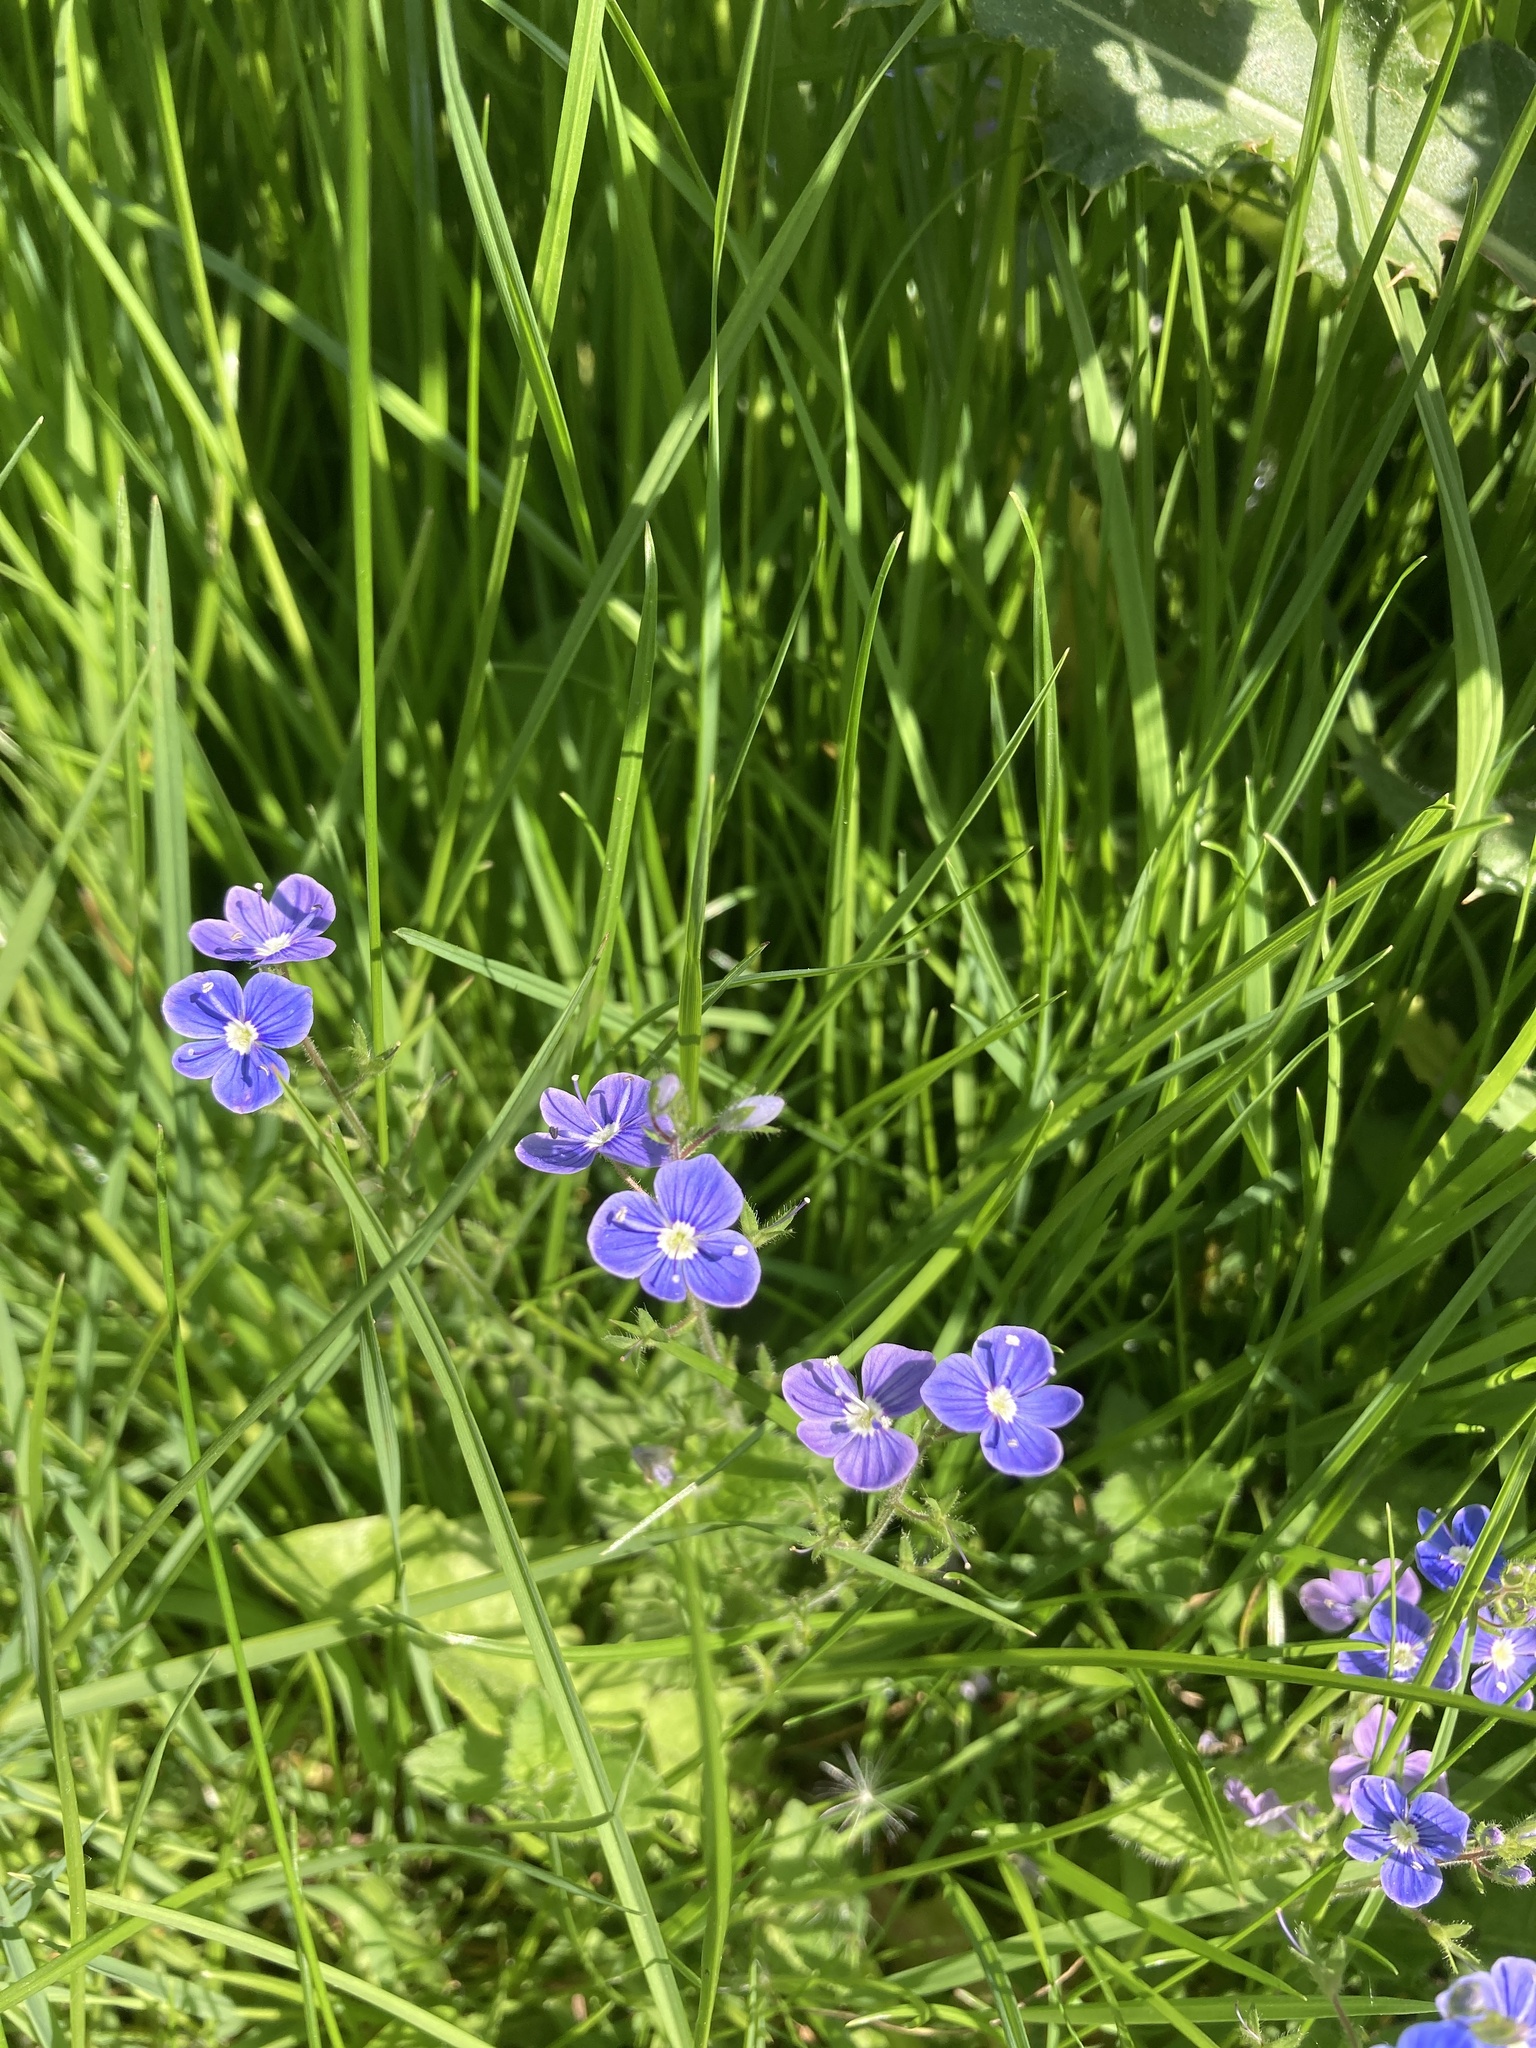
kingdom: Plantae
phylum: Tracheophyta
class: Magnoliopsida
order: Lamiales
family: Plantaginaceae
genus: Veronica
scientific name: Veronica chamaedrys
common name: Germander speedwell
